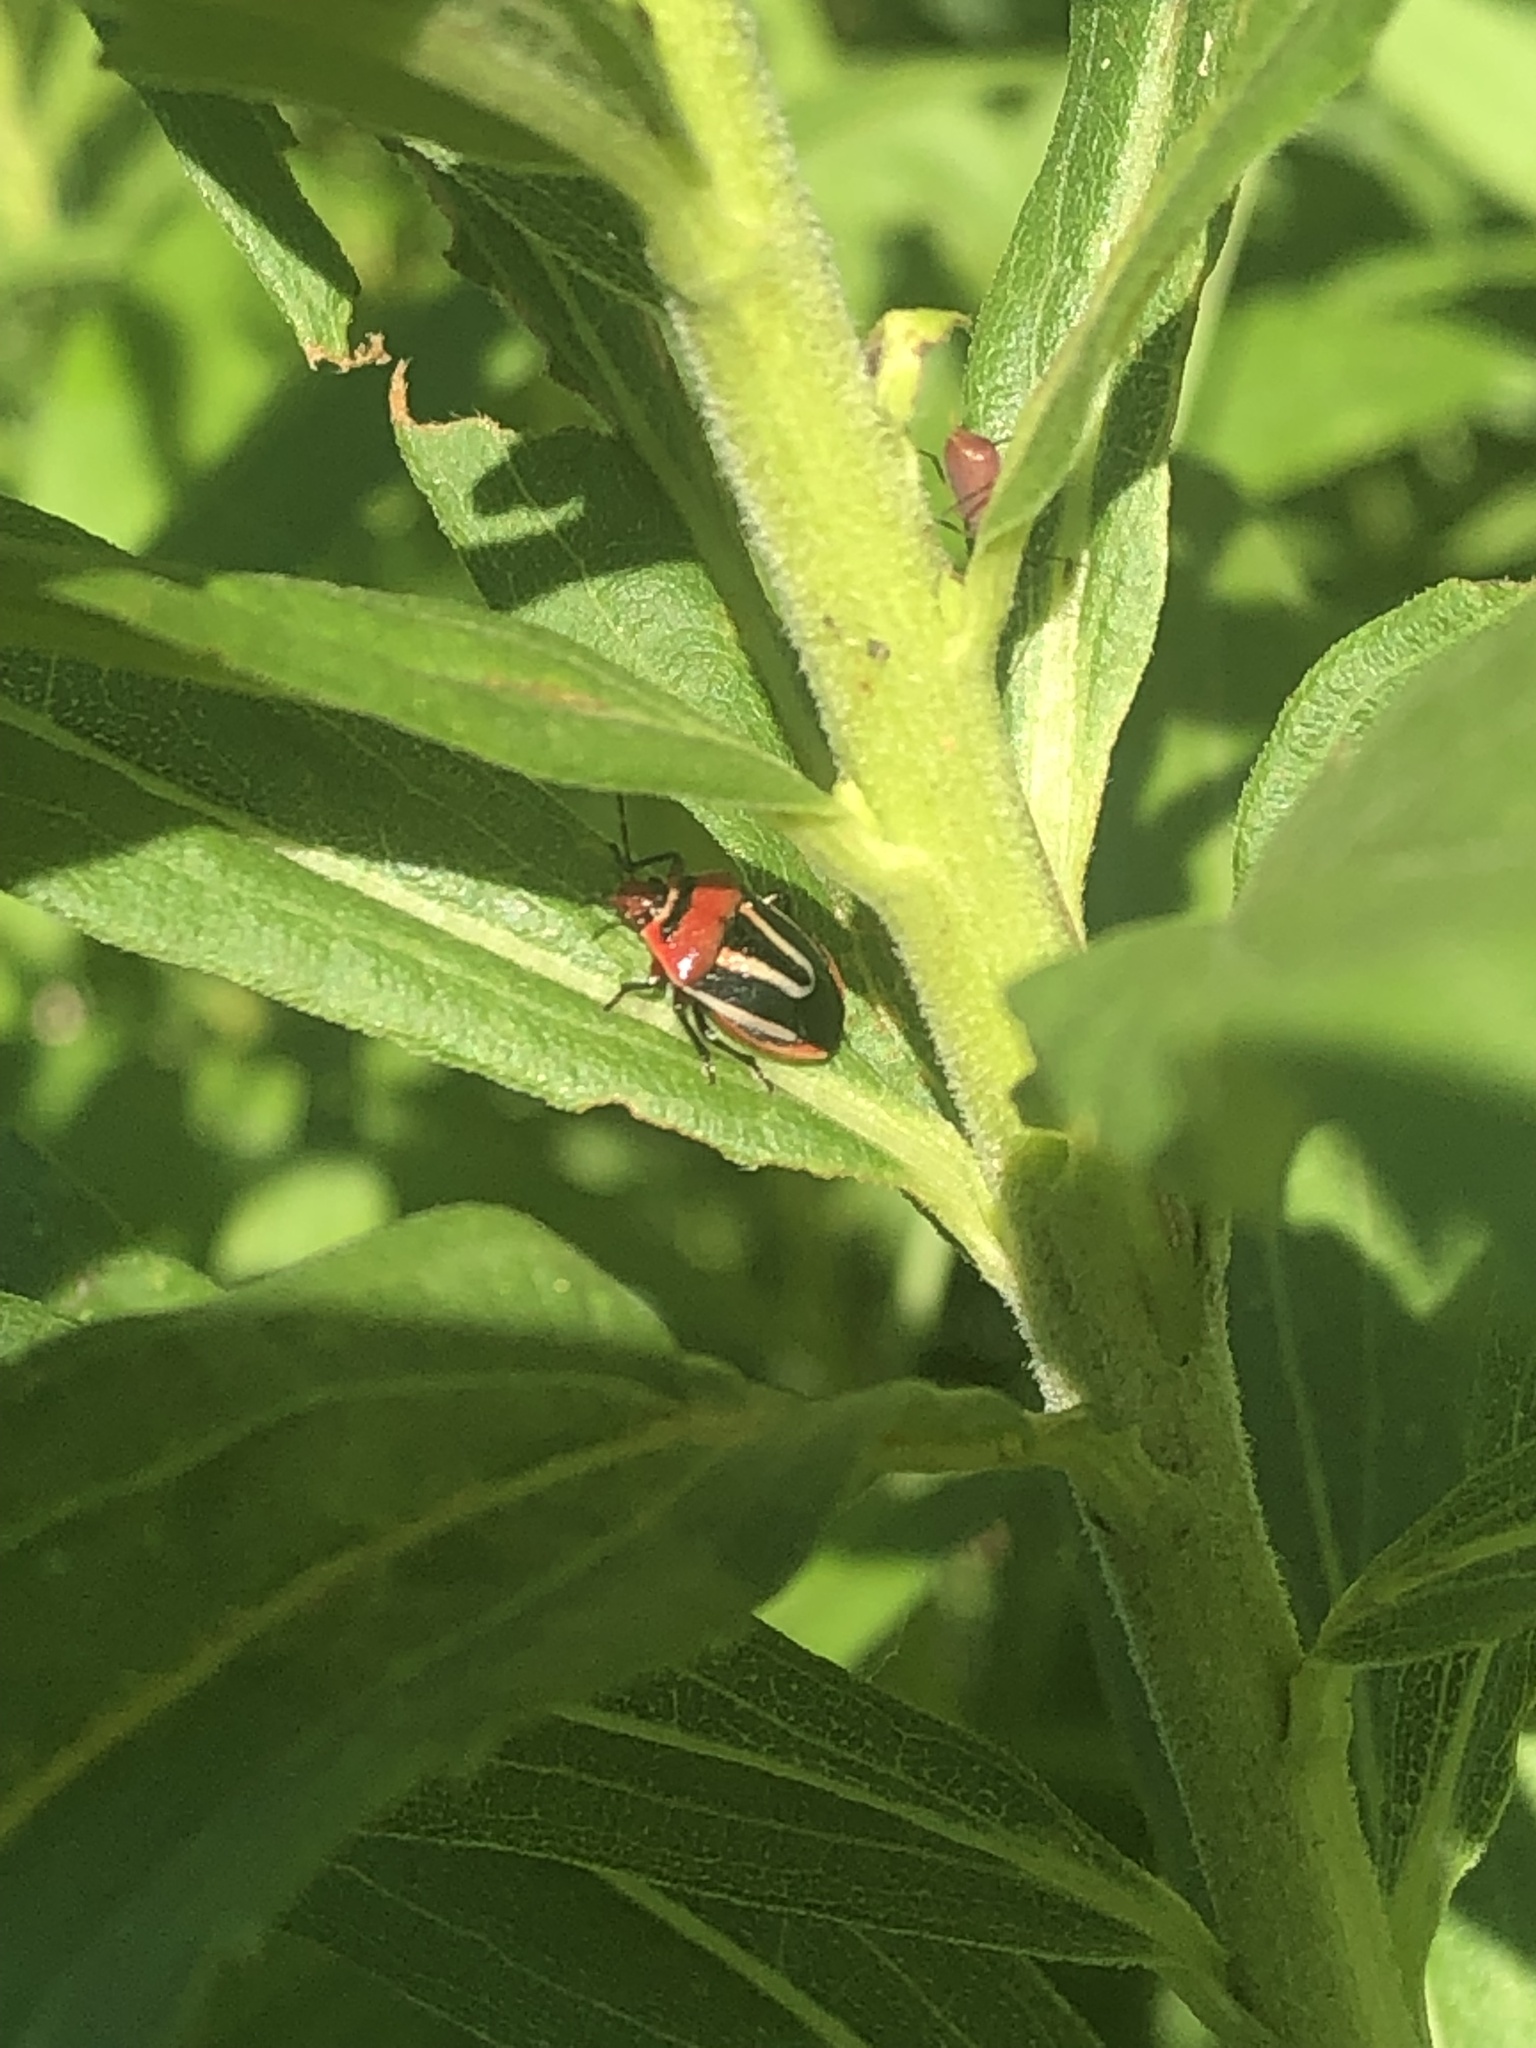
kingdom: Animalia
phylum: Arthropoda
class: Insecta
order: Hemiptera
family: Pentatomidae
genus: Perillus
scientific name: Perillus exaptus
